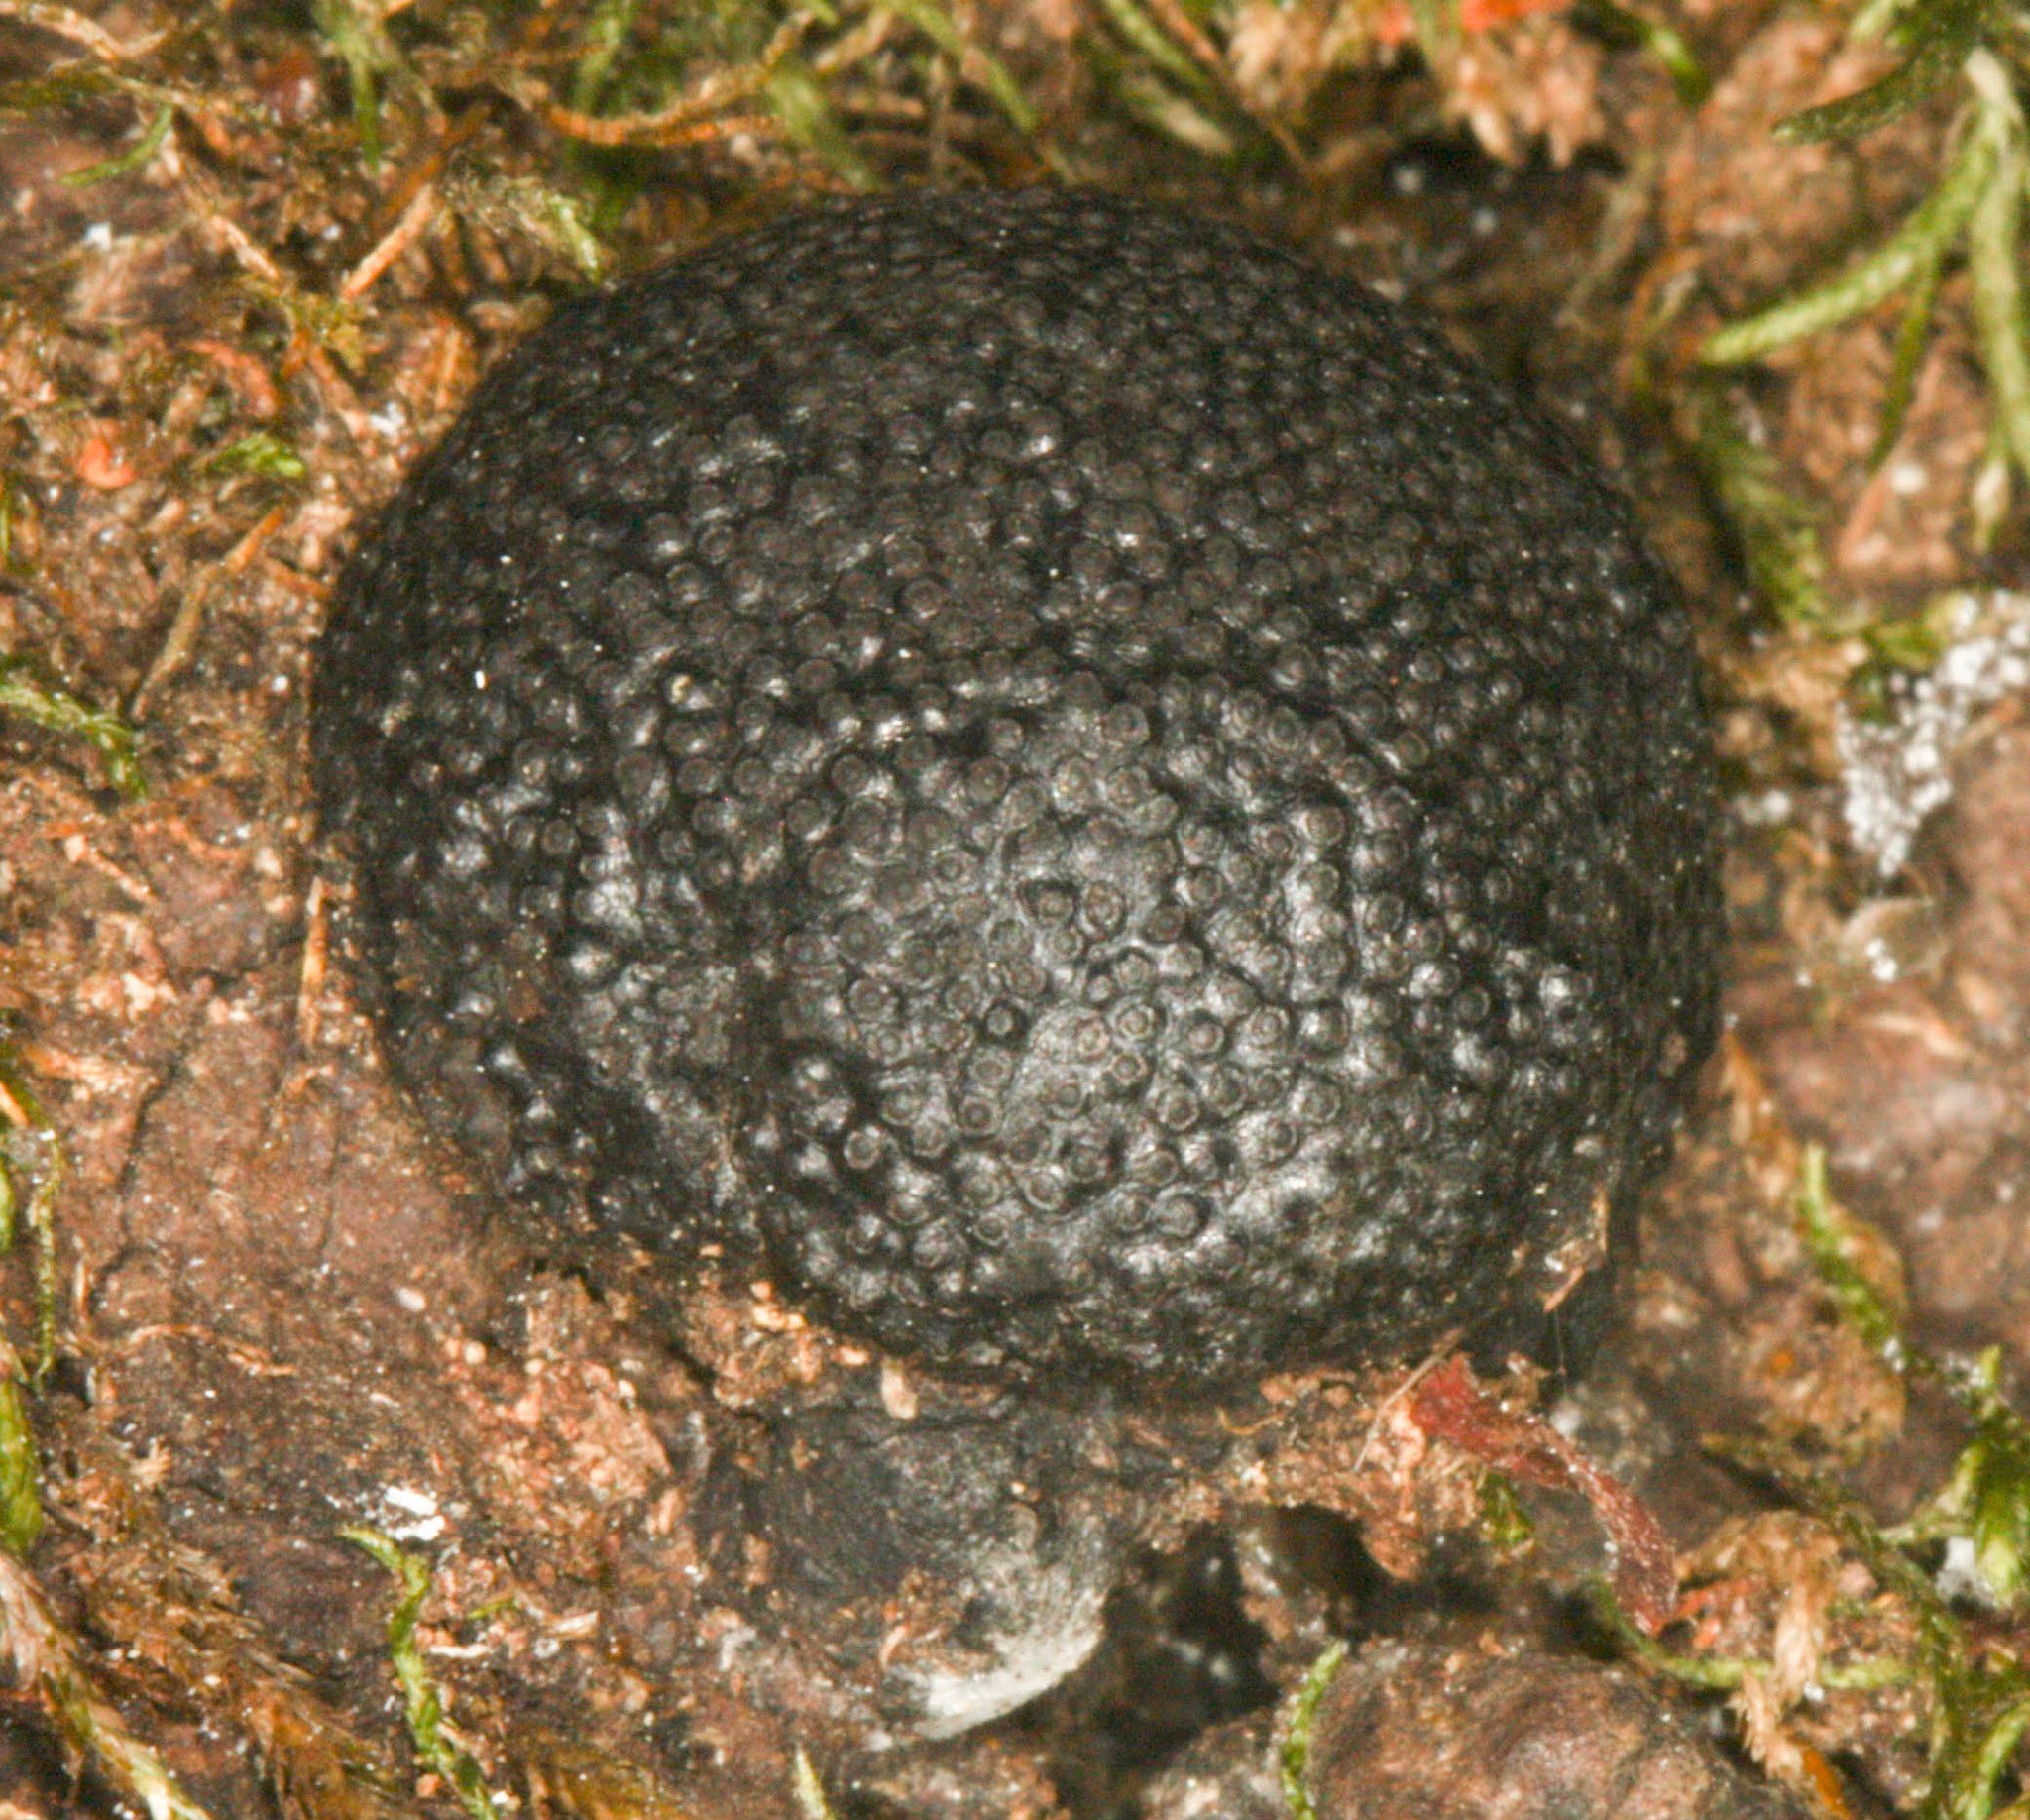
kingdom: Fungi
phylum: Ascomycota
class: Sordariomycetes
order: Xylariales
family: Hypoxylaceae
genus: Annulohypoxylon
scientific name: Annulohypoxylon thouarsianum
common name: Cramp balls
